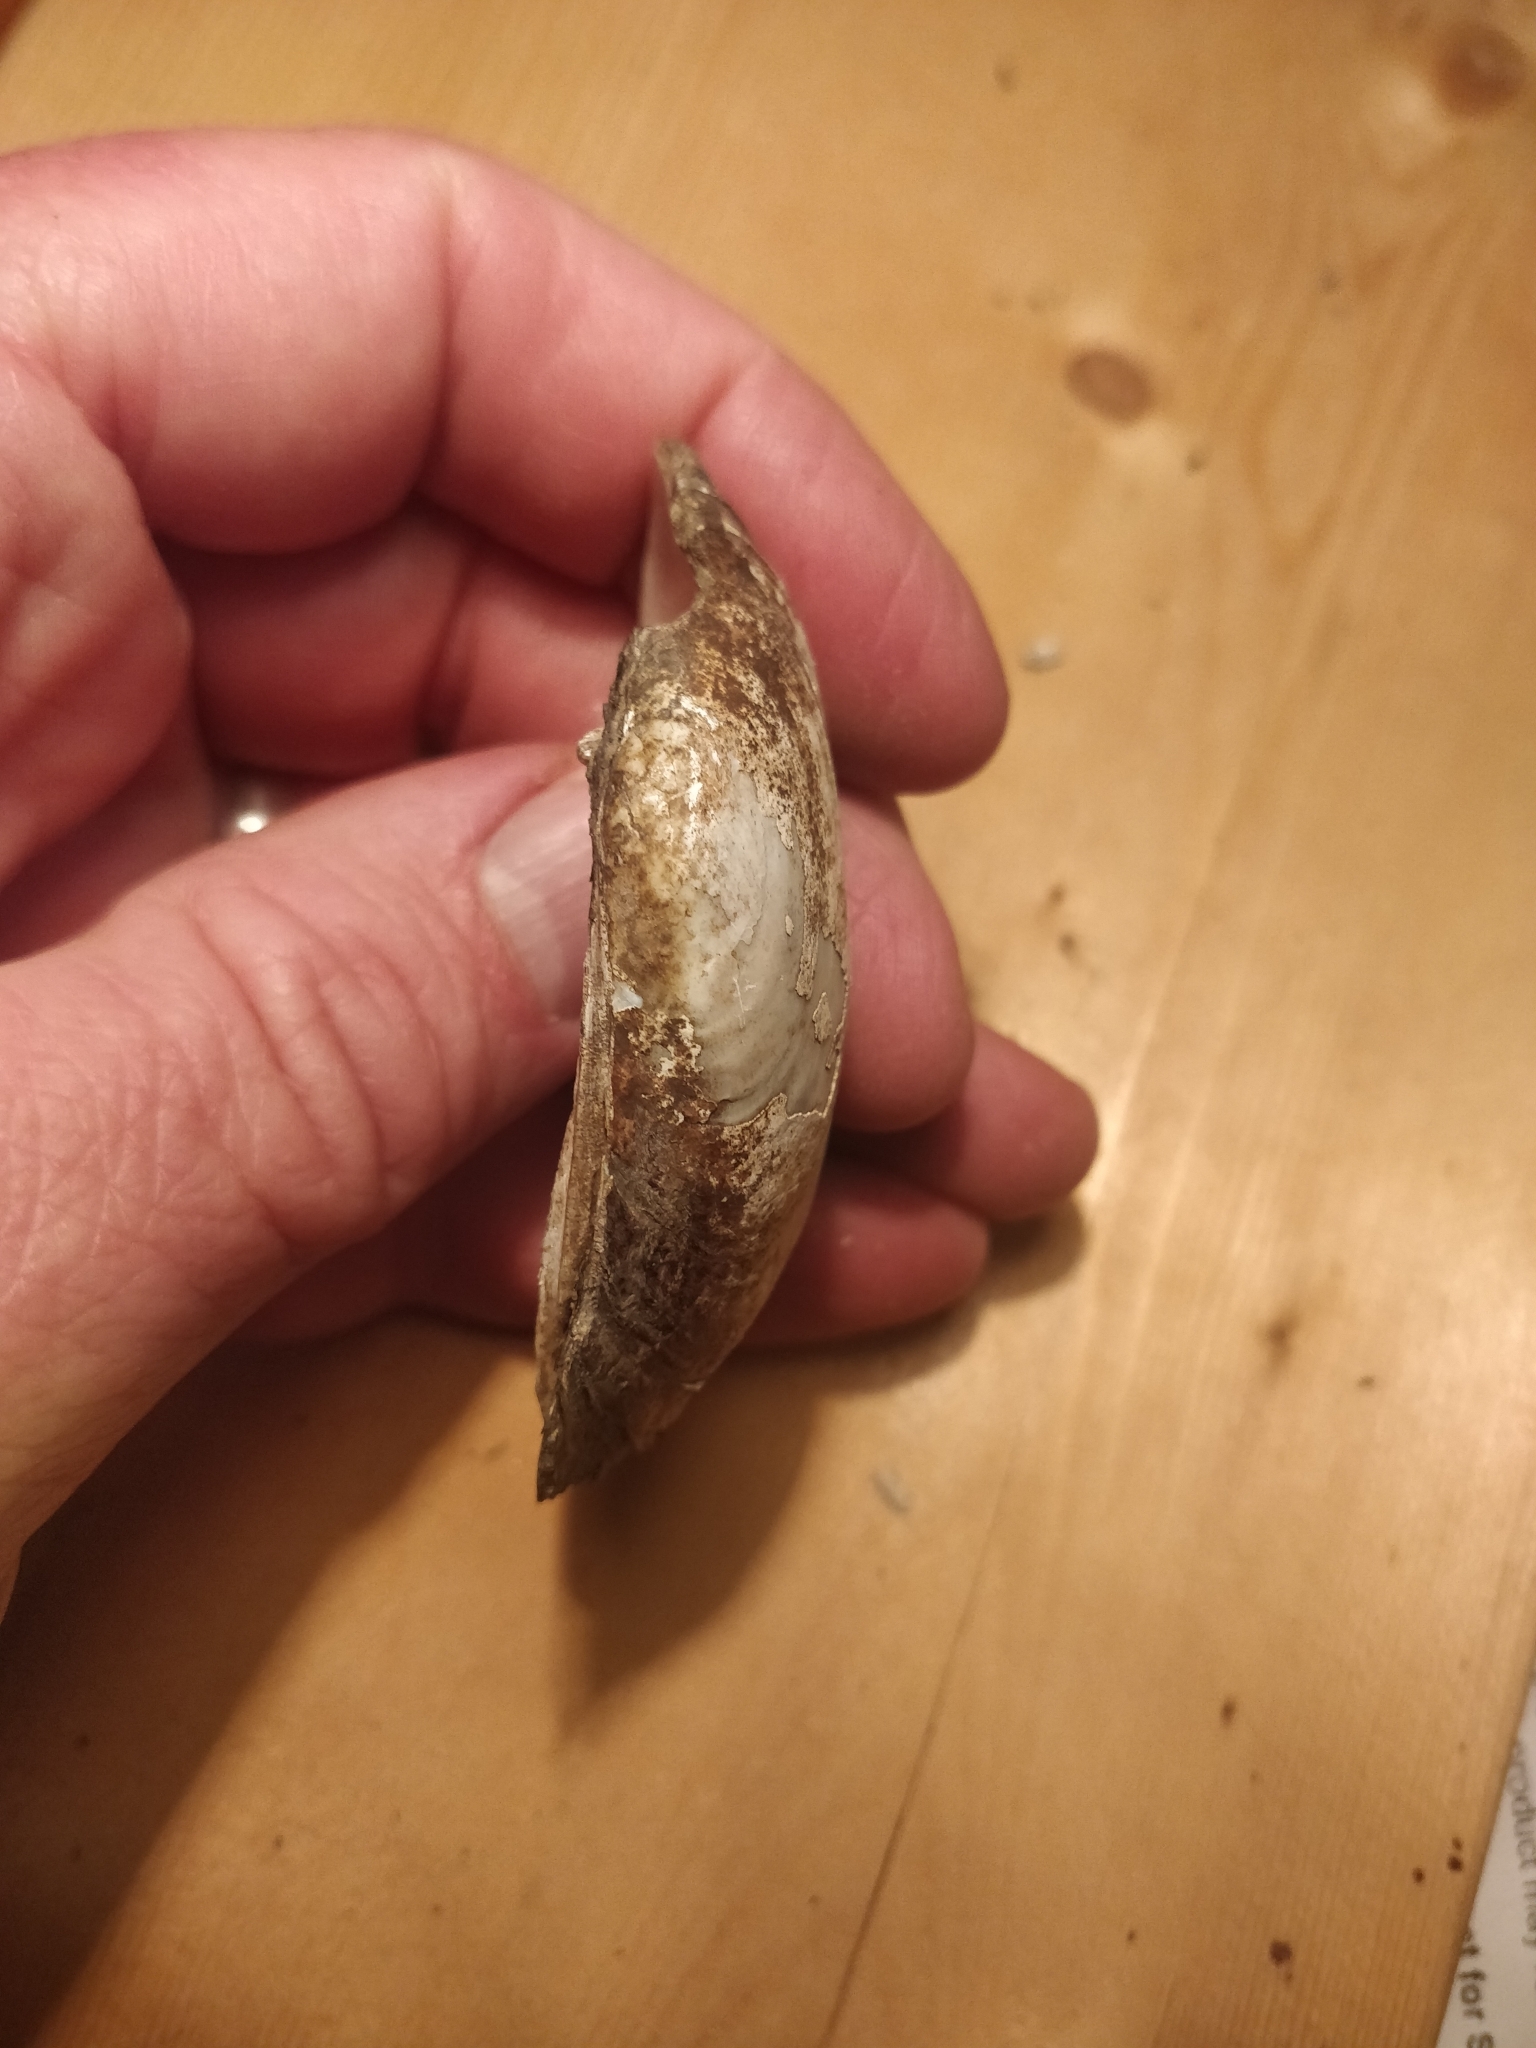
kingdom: Animalia
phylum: Mollusca
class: Bivalvia
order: Unionida
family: Unionidae
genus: Lampsilis
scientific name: Lampsilis siliquoidea
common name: Fatmucket
